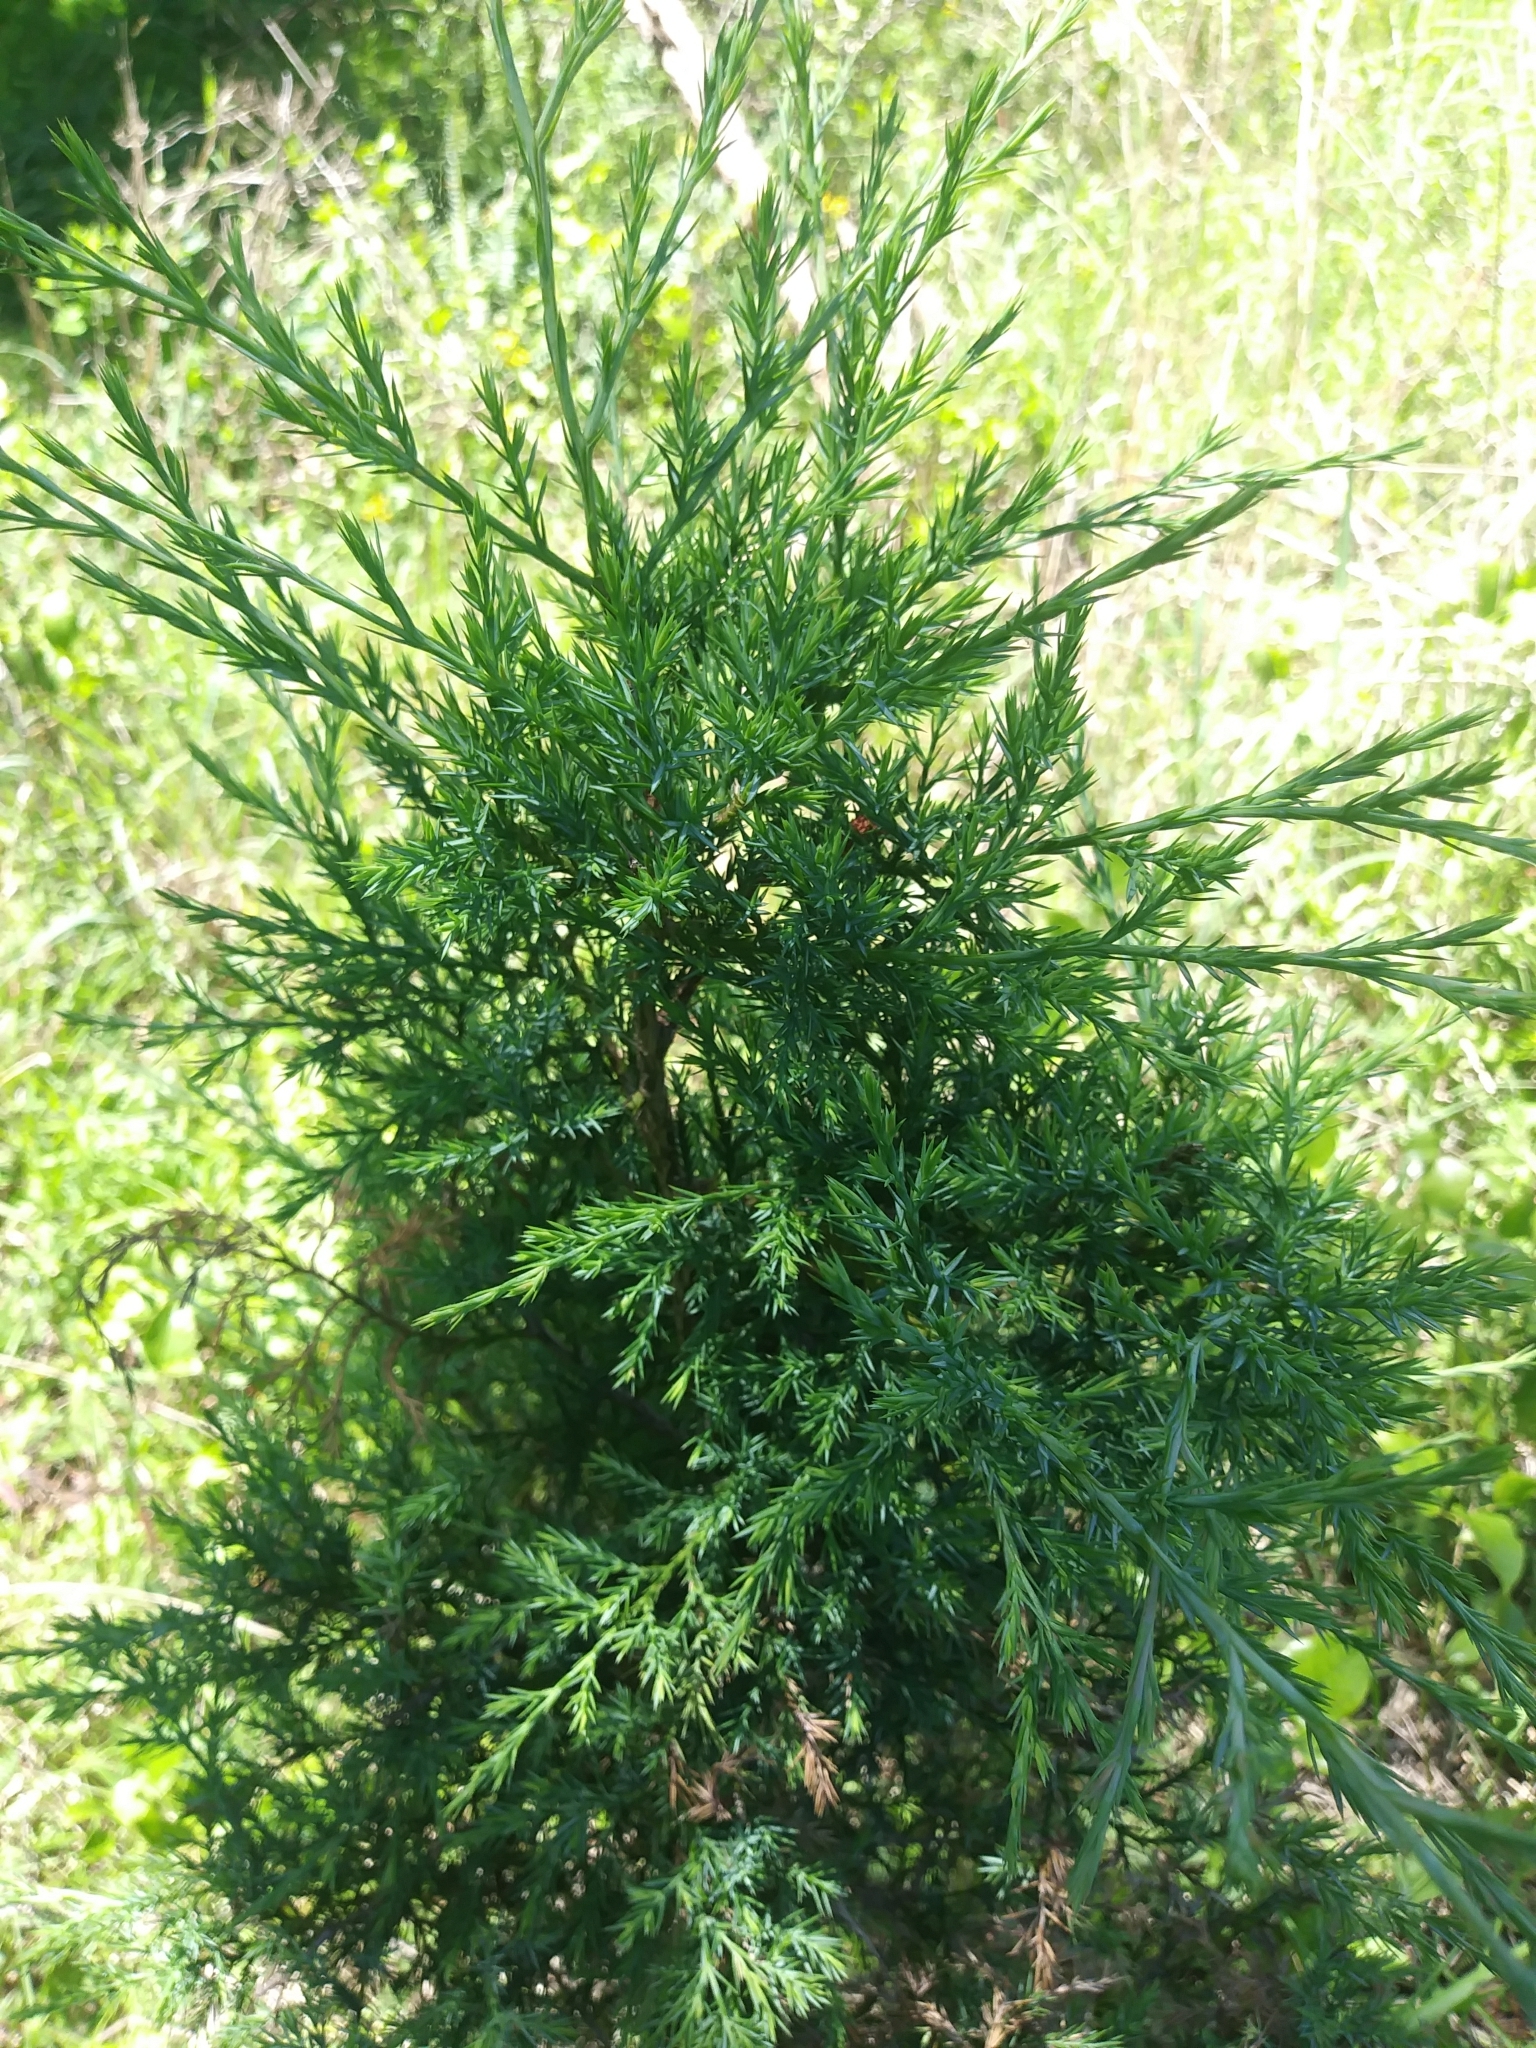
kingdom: Plantae
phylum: Tracheophyta
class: Pinopsida
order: Pinales
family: Cupressaceae
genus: Juniperus
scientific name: Juniperus virginiana
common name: Red juniper
